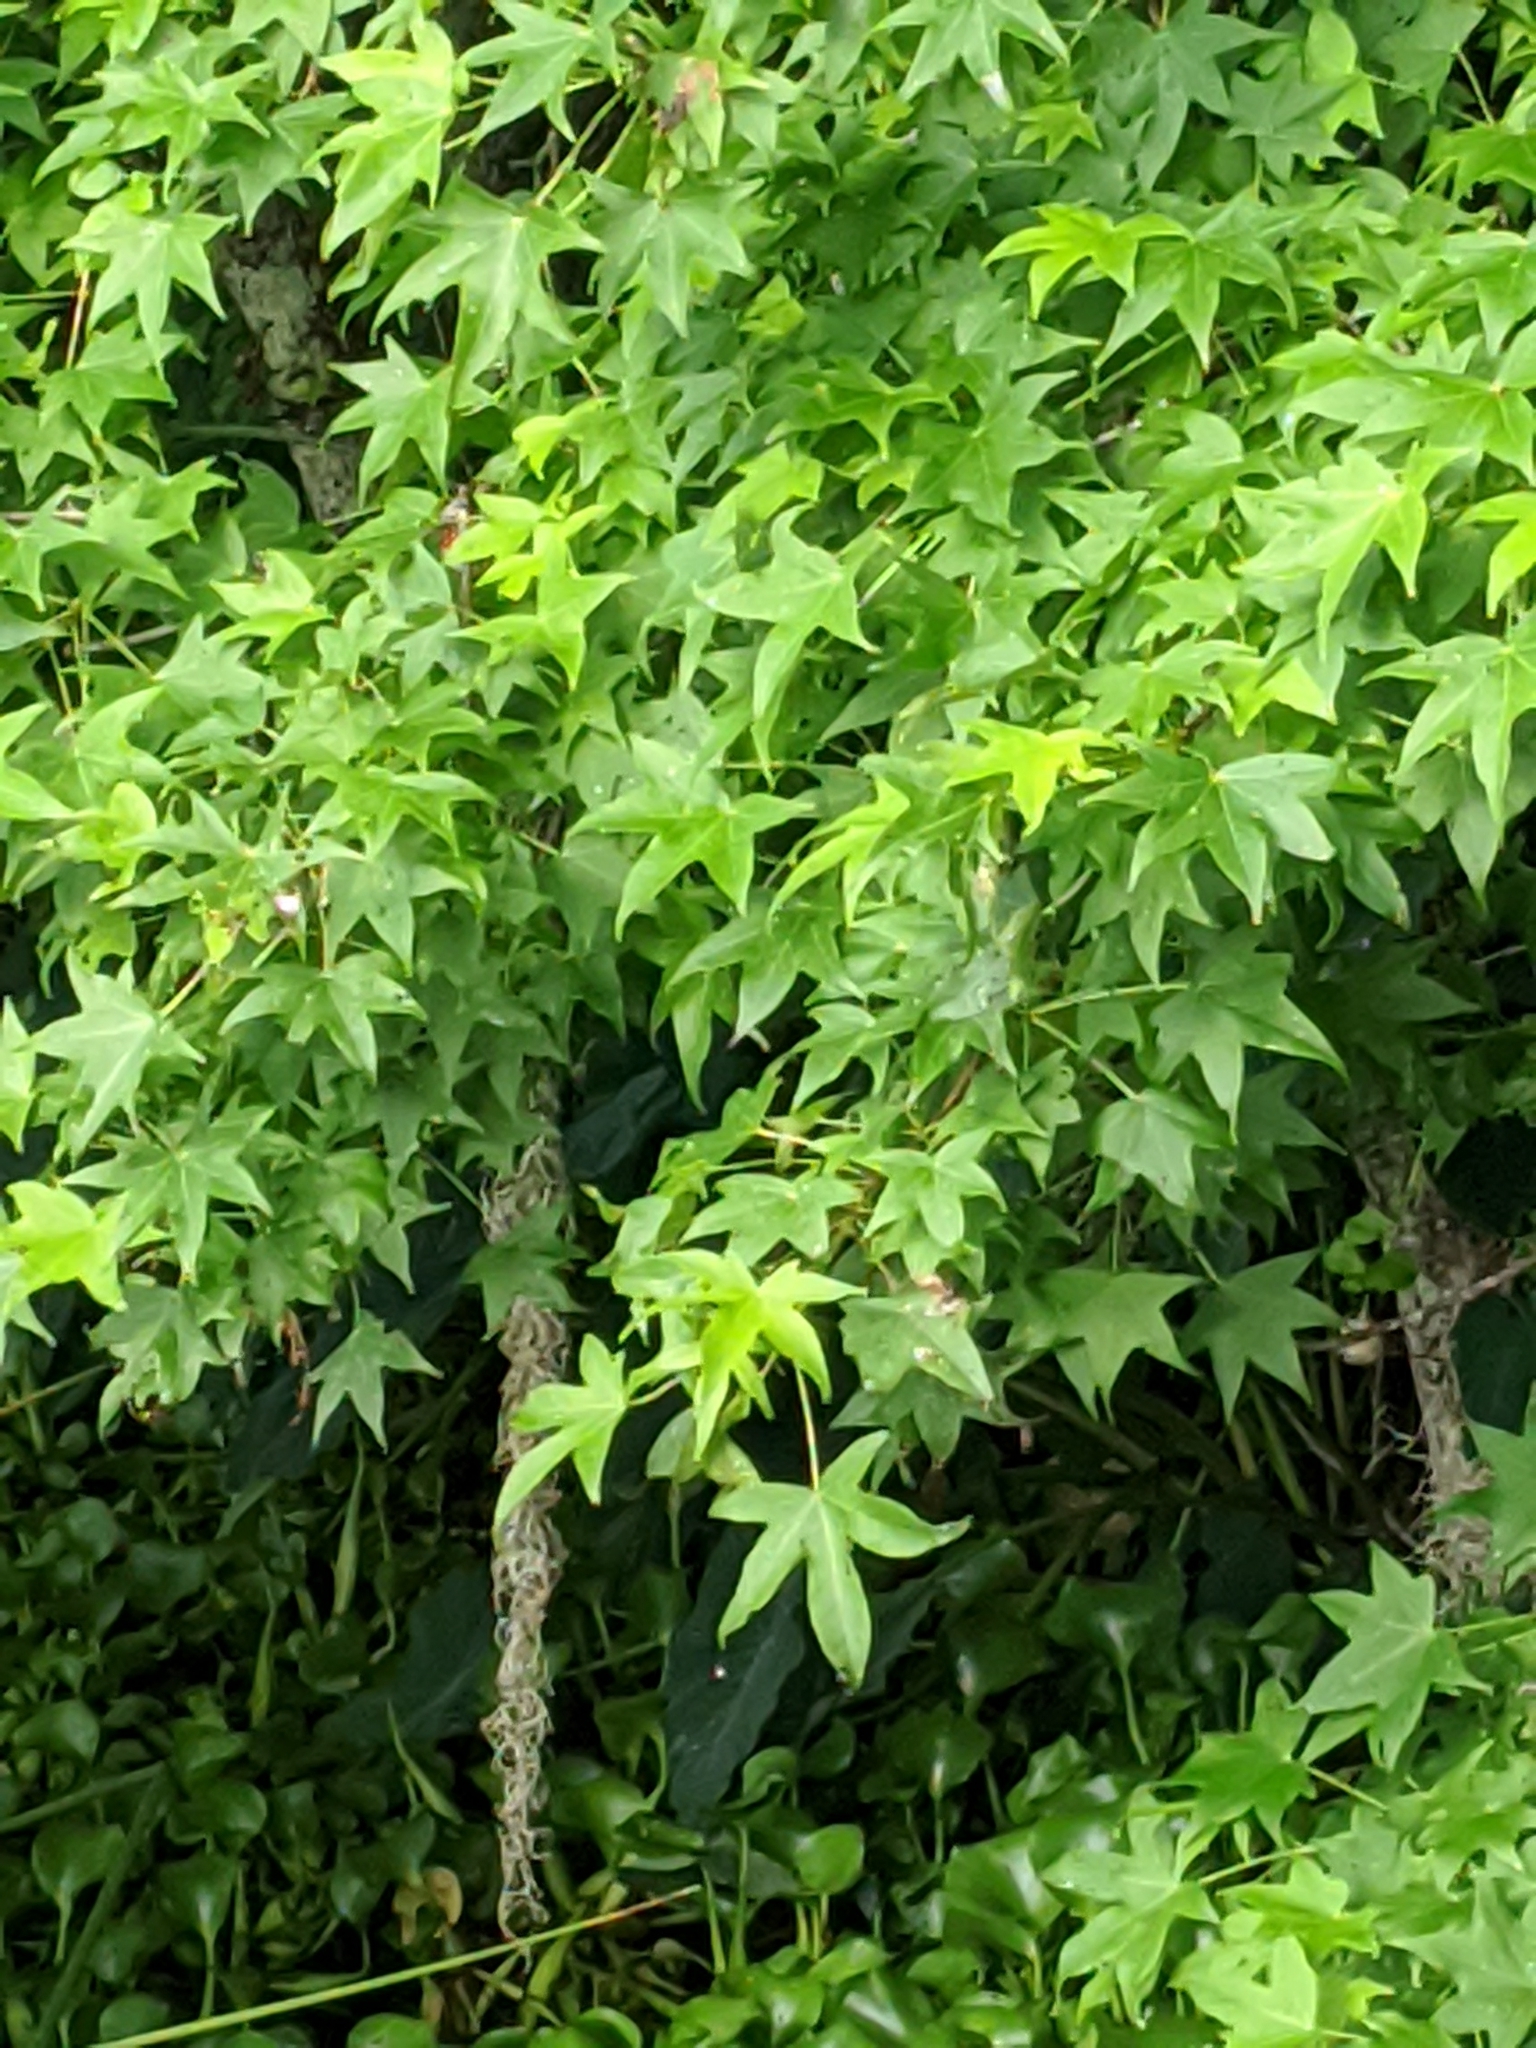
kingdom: Plantae
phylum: Tracheophyta
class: Magnoliopsida
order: Saxifragales
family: Altingiaceae
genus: Liquidambar
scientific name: Liquidambar styraciflua
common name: Sweet gum
